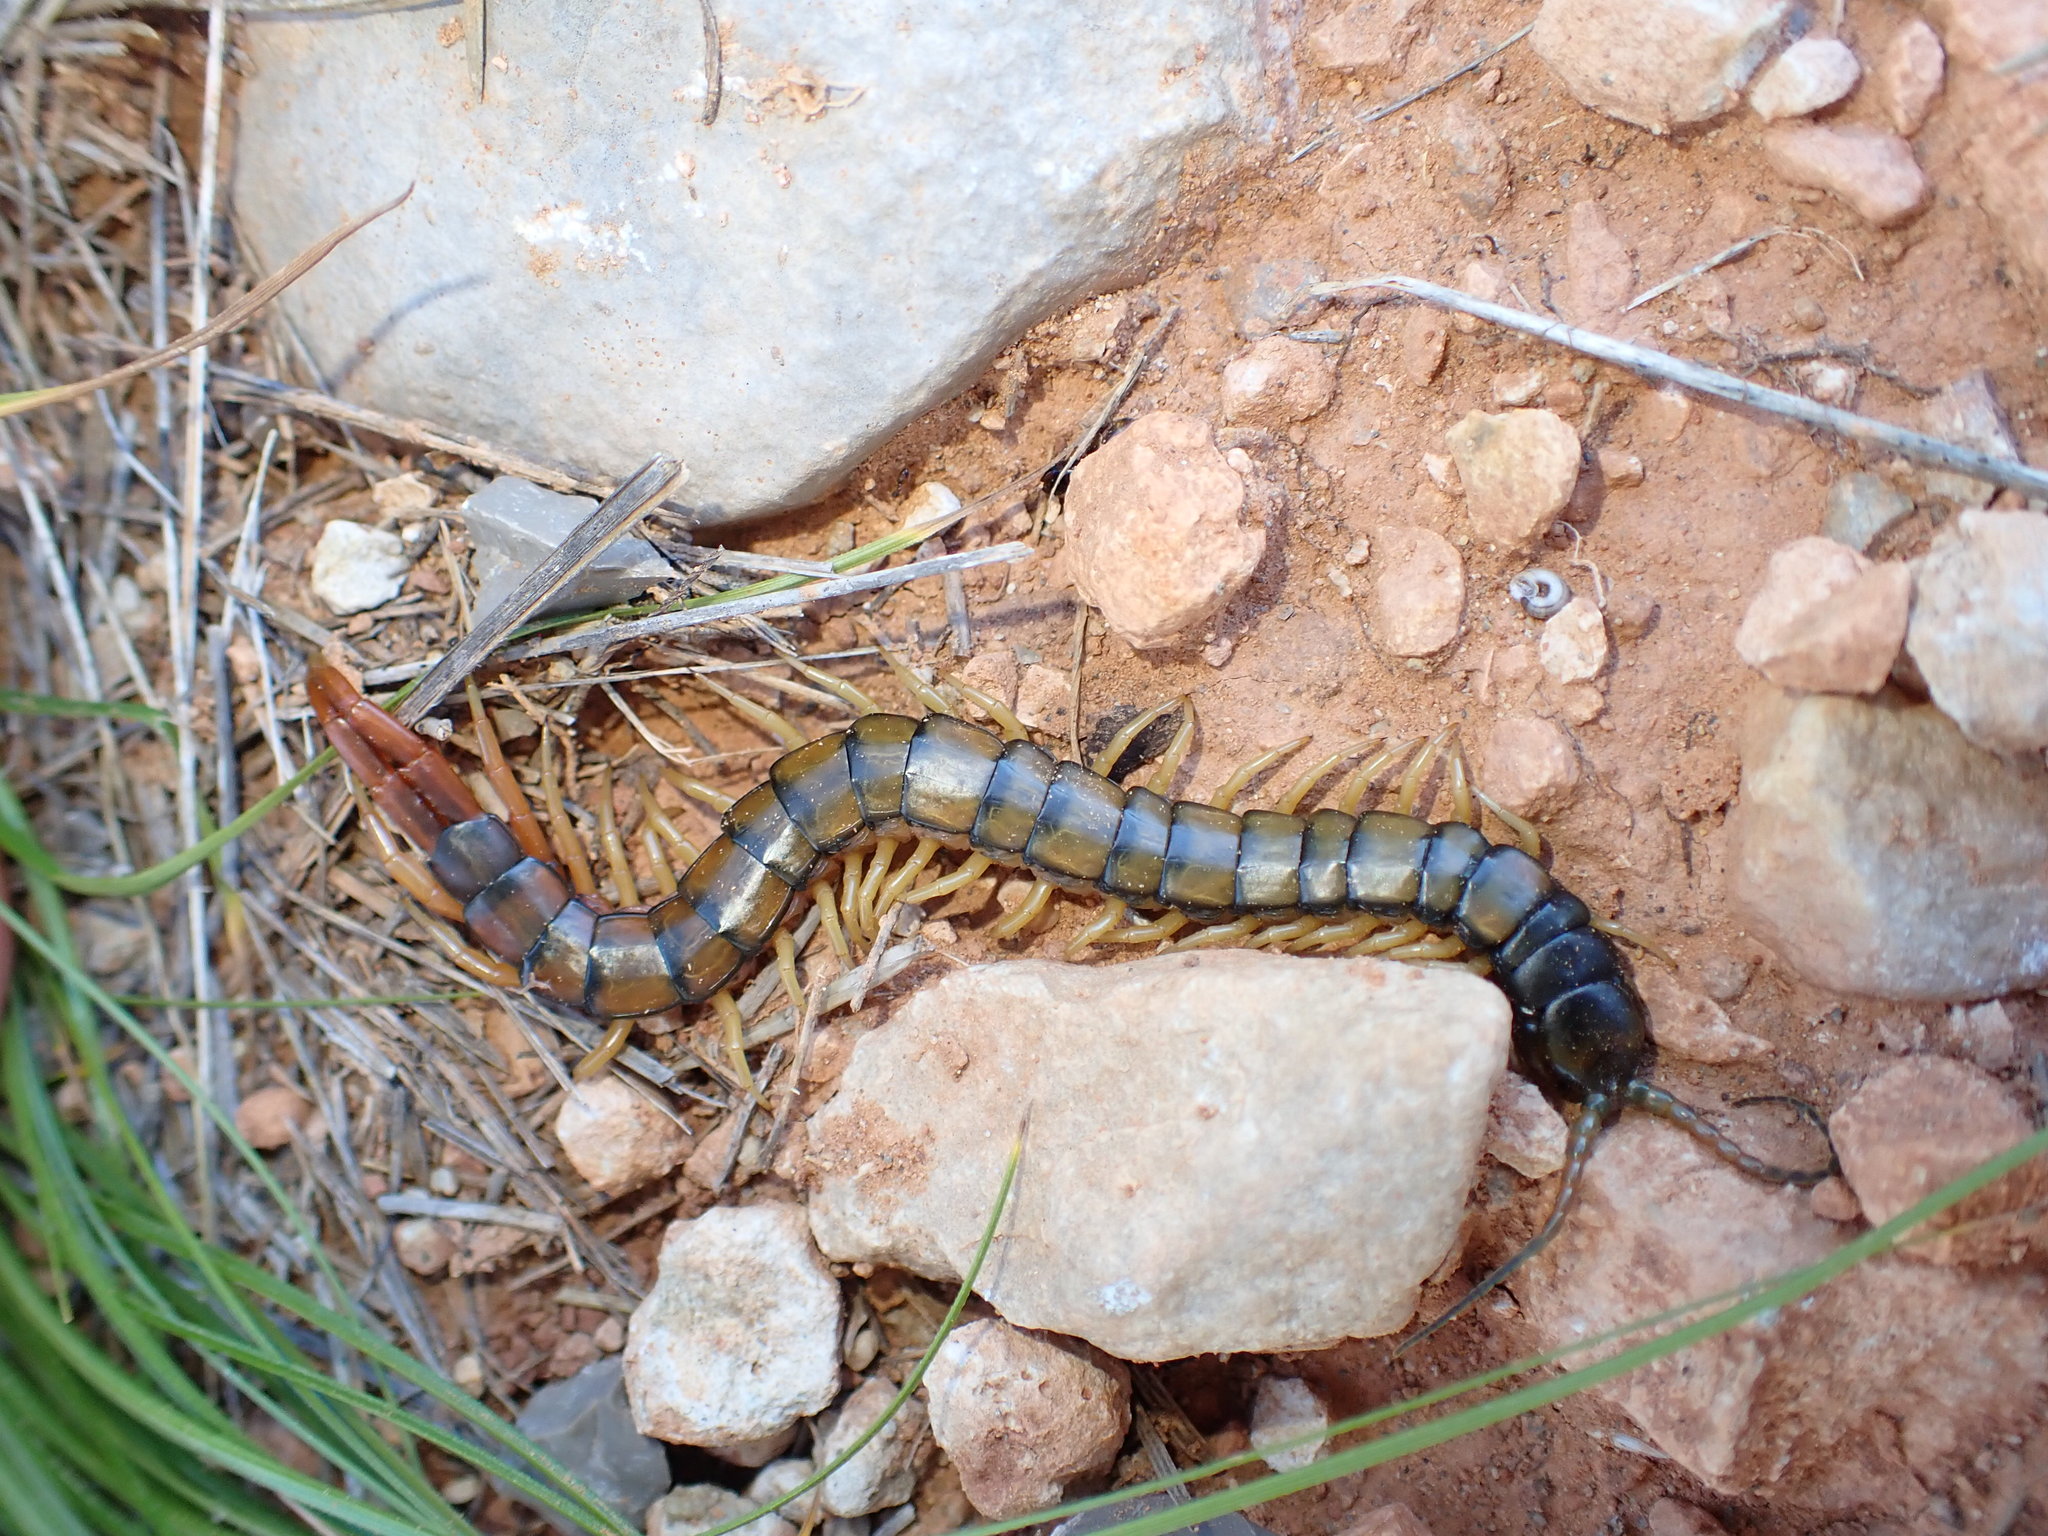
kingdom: Animalia
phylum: Arthropoda
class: Chilopoda
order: Scolopendromorpha
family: Scolopendridae
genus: Scolopendra
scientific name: Scolopendra cingulata
